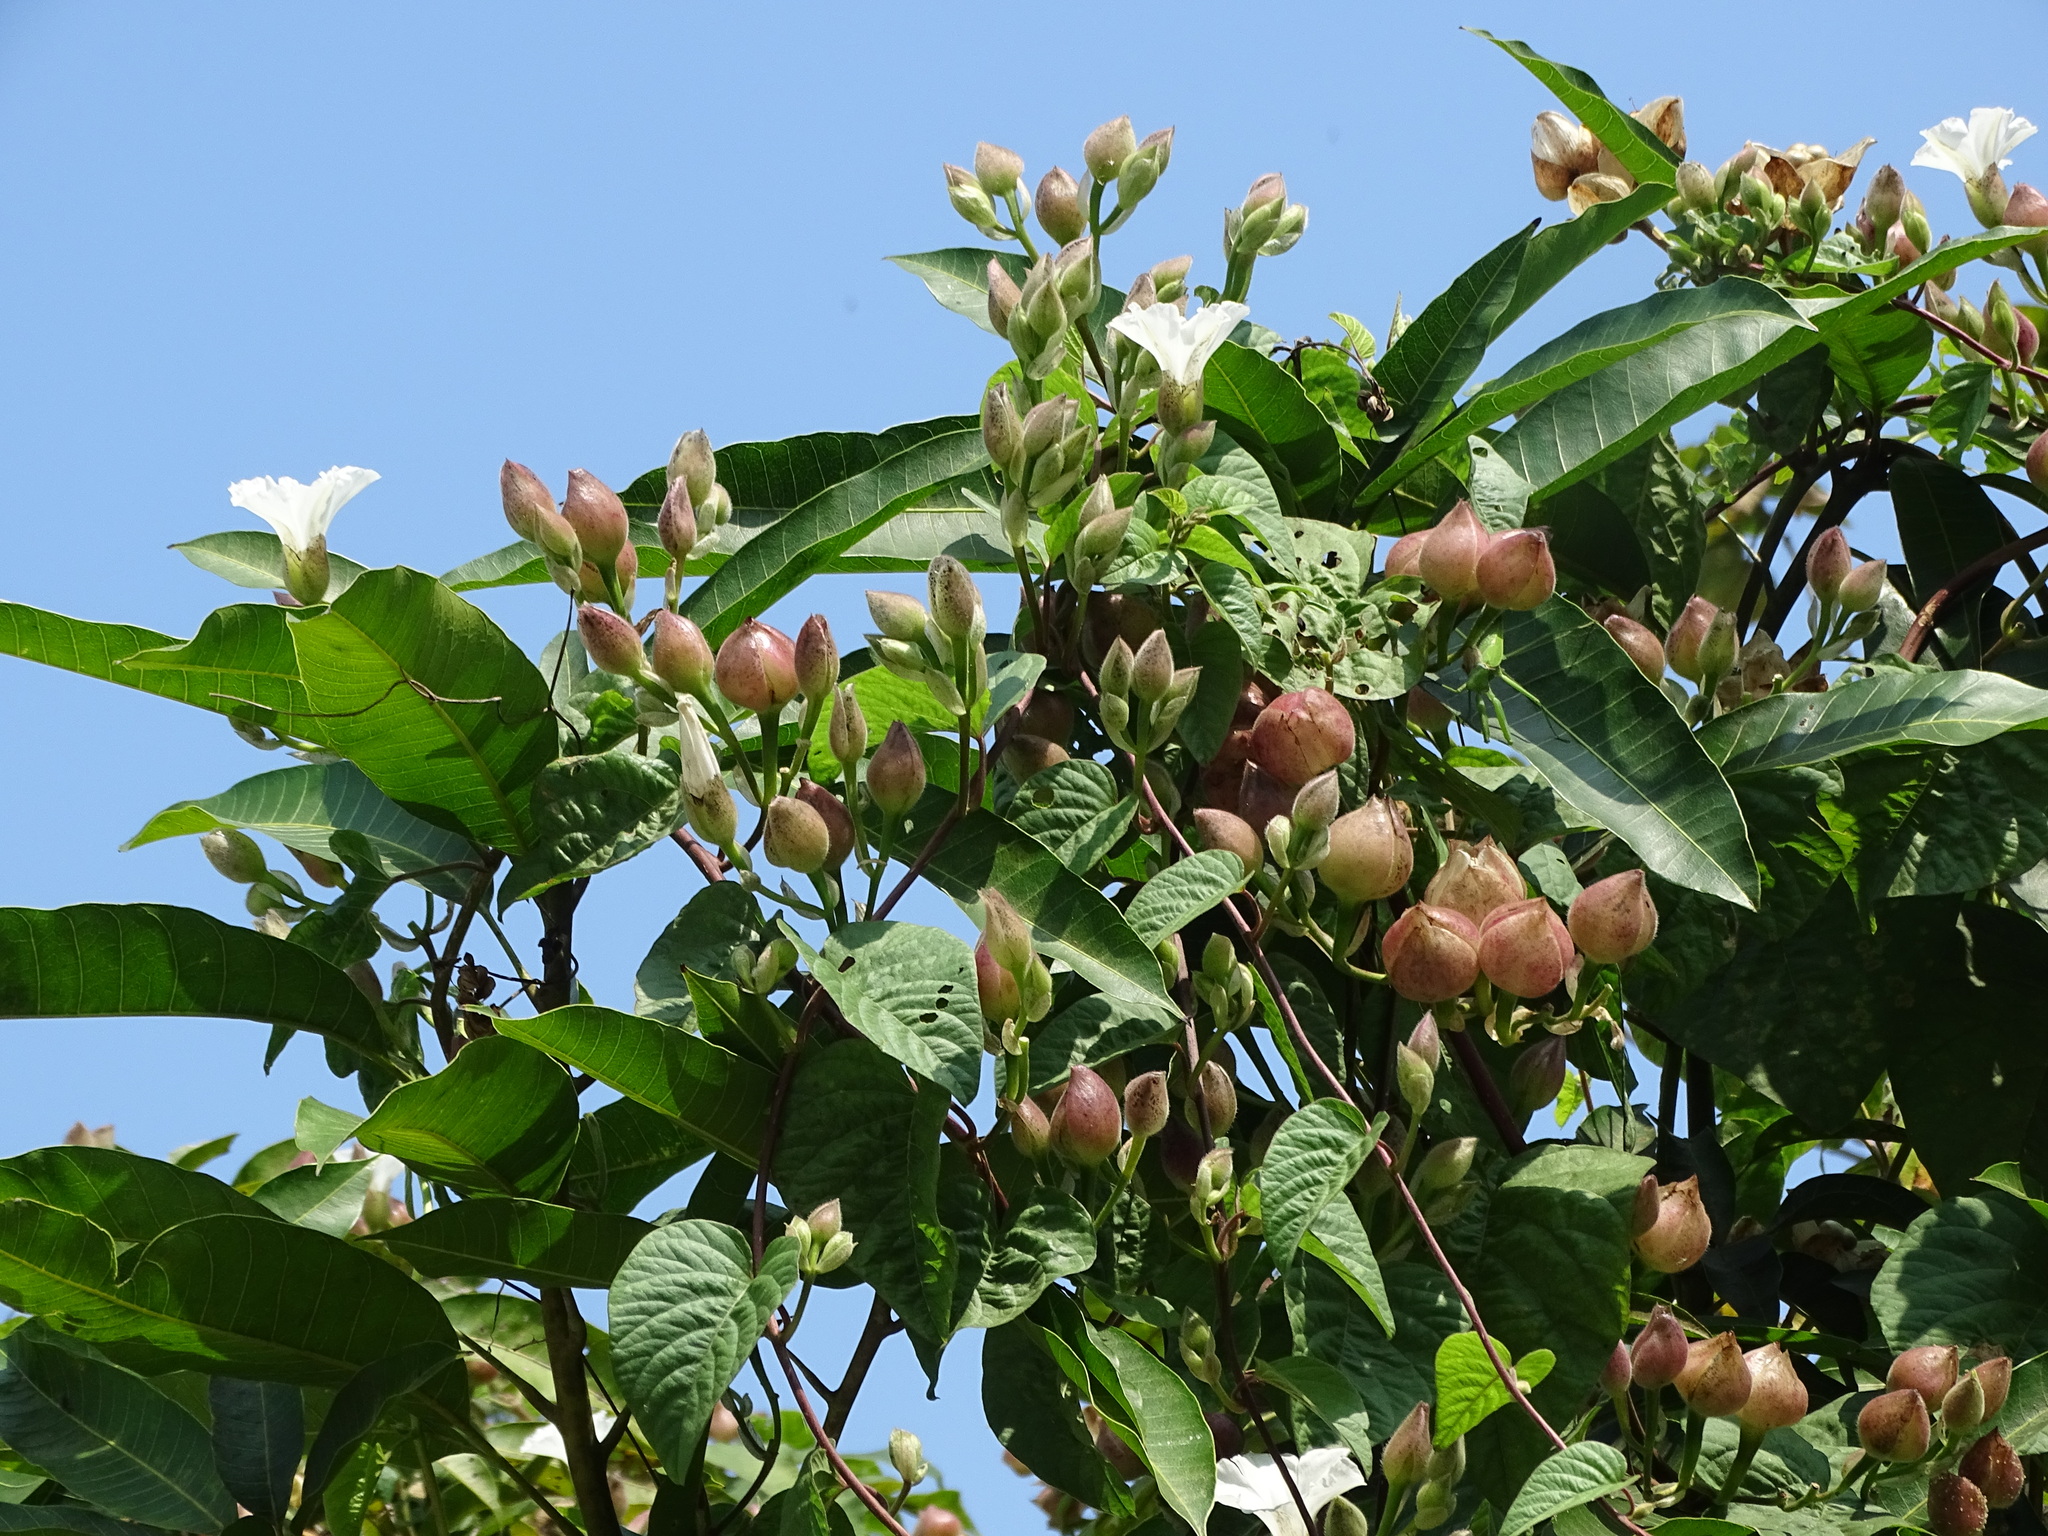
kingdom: Plantae
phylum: Tracheophyta
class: Magnoliopsida
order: Solanales
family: Convolvulaceae
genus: Operculina
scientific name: Operculina turpethum
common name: Transparent wood-rose
